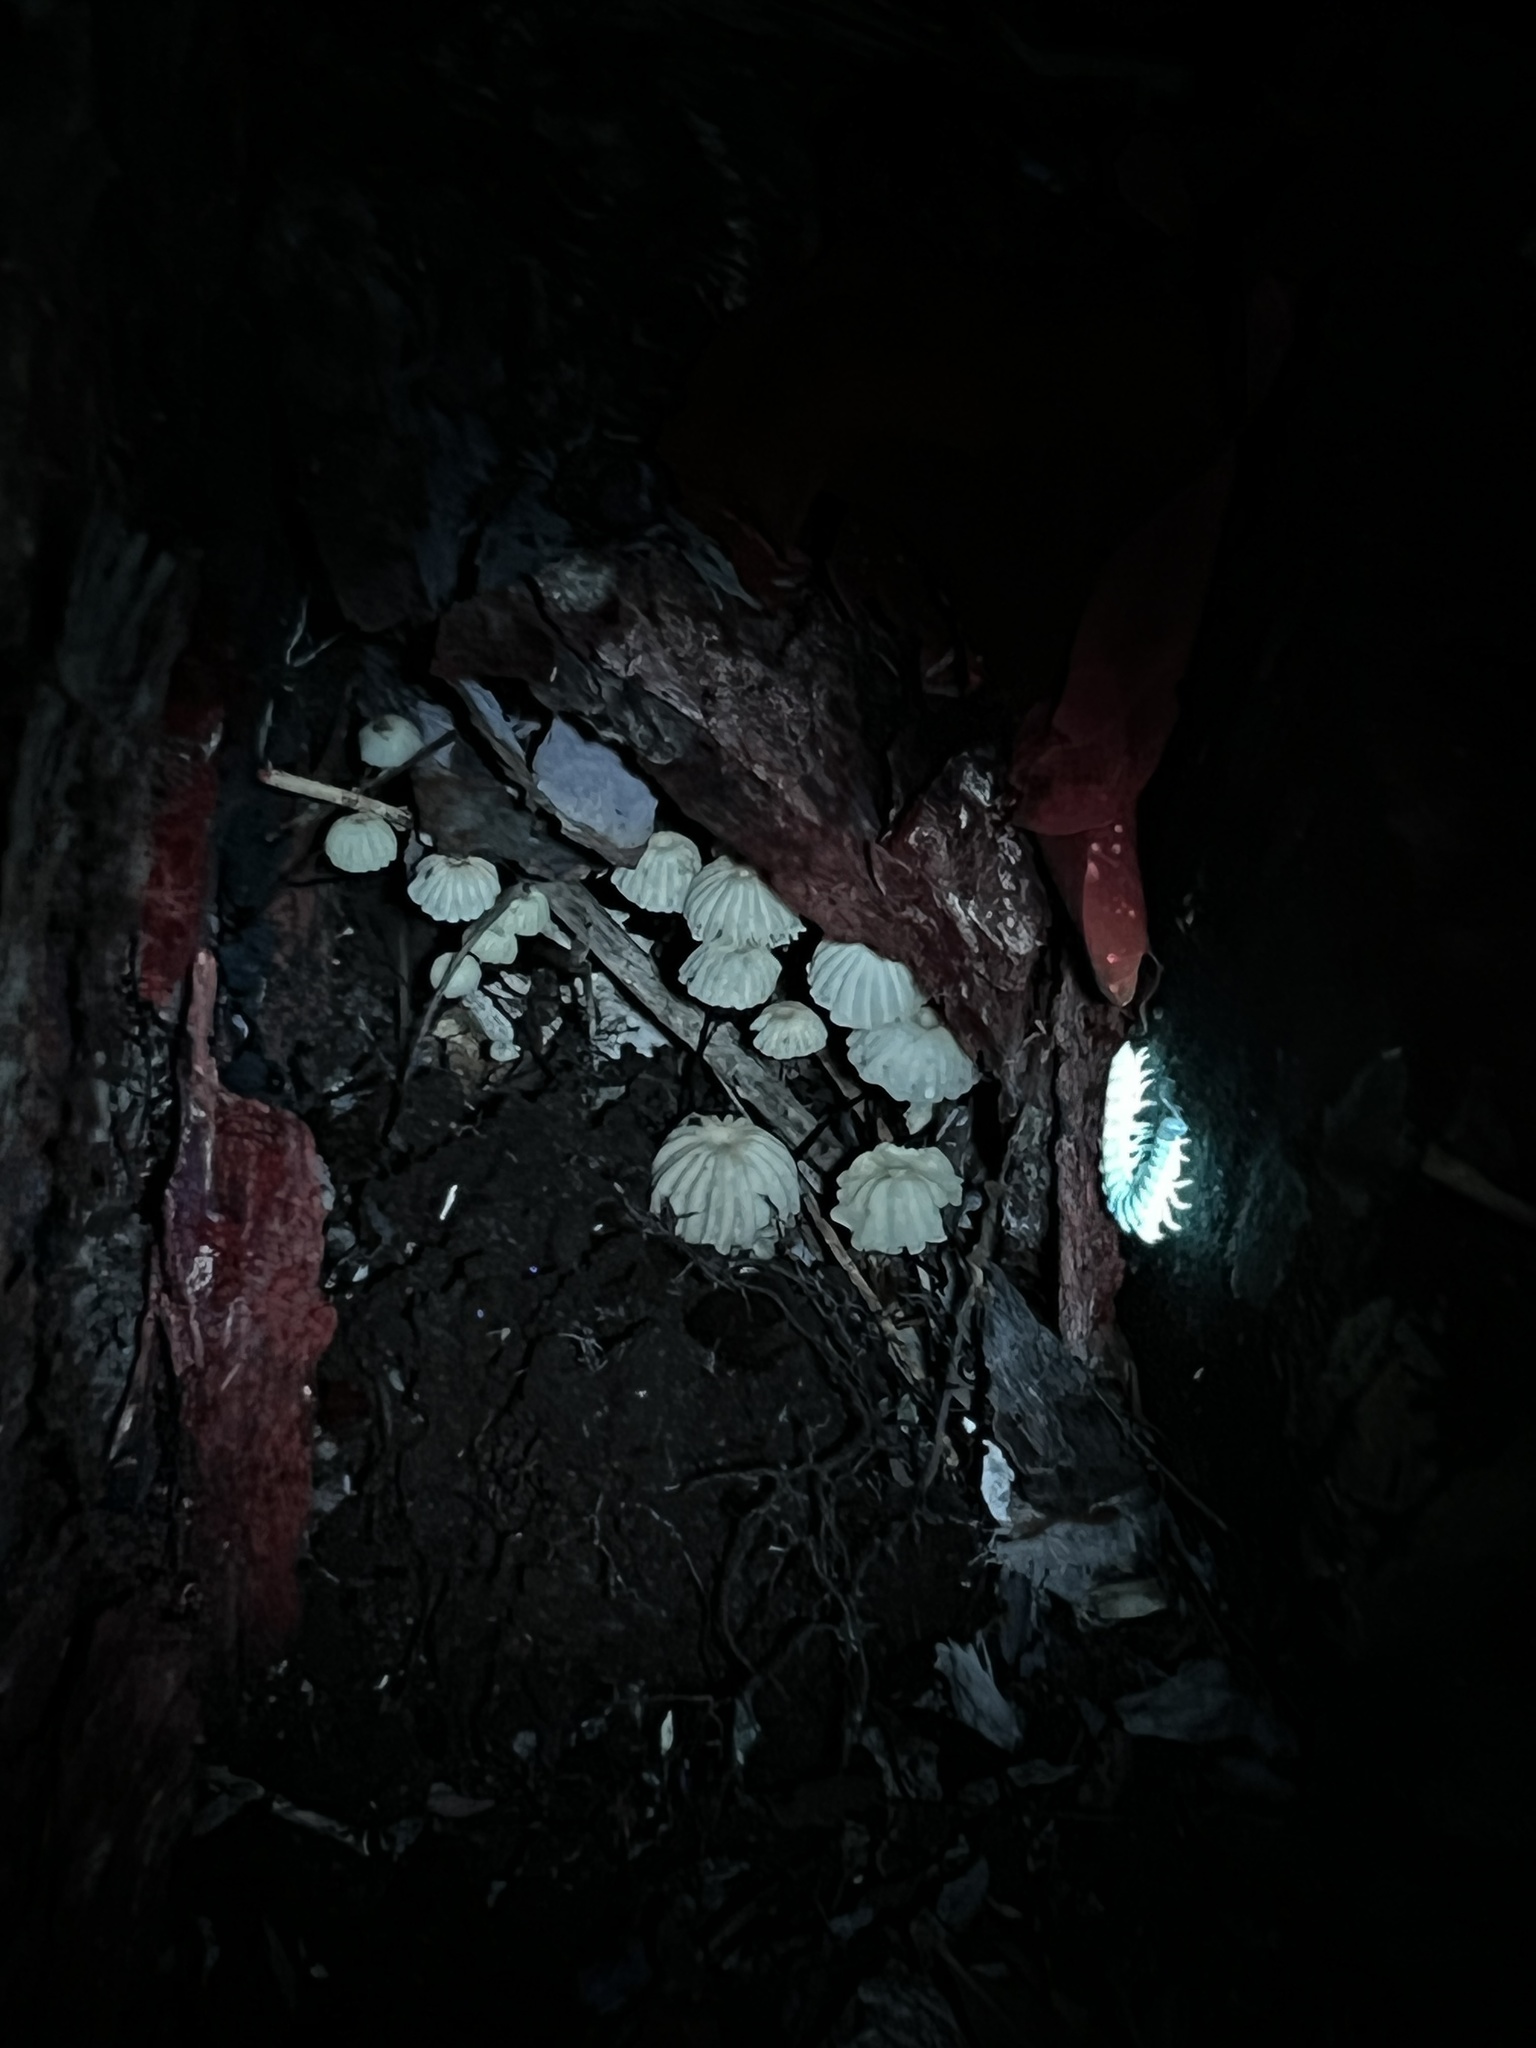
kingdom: Fungi
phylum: Basidiomycota
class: Agaricomycetes
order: Agaricales
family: Marasmiaceae
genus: Marasmius
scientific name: Marasmius rotula
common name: Collared parachute
